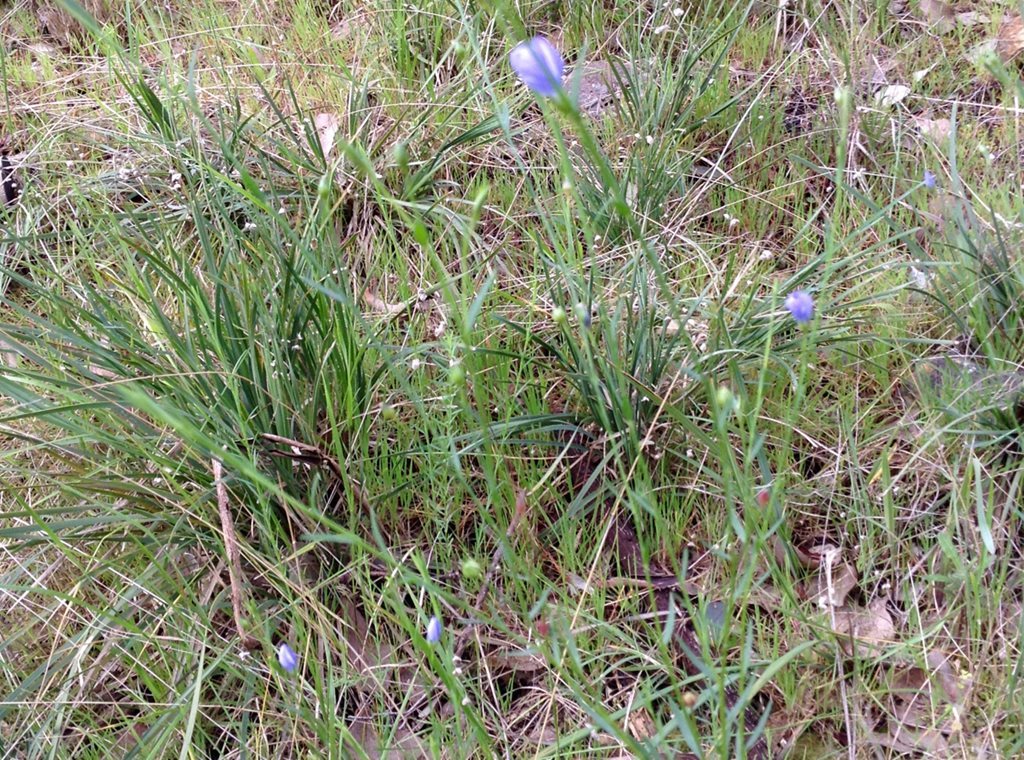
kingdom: Plantae
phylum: Tracheophyta
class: Magnoliopsida
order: Malpighiales
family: Linaceae
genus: Linum
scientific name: Linum marginale
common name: Wild flax
